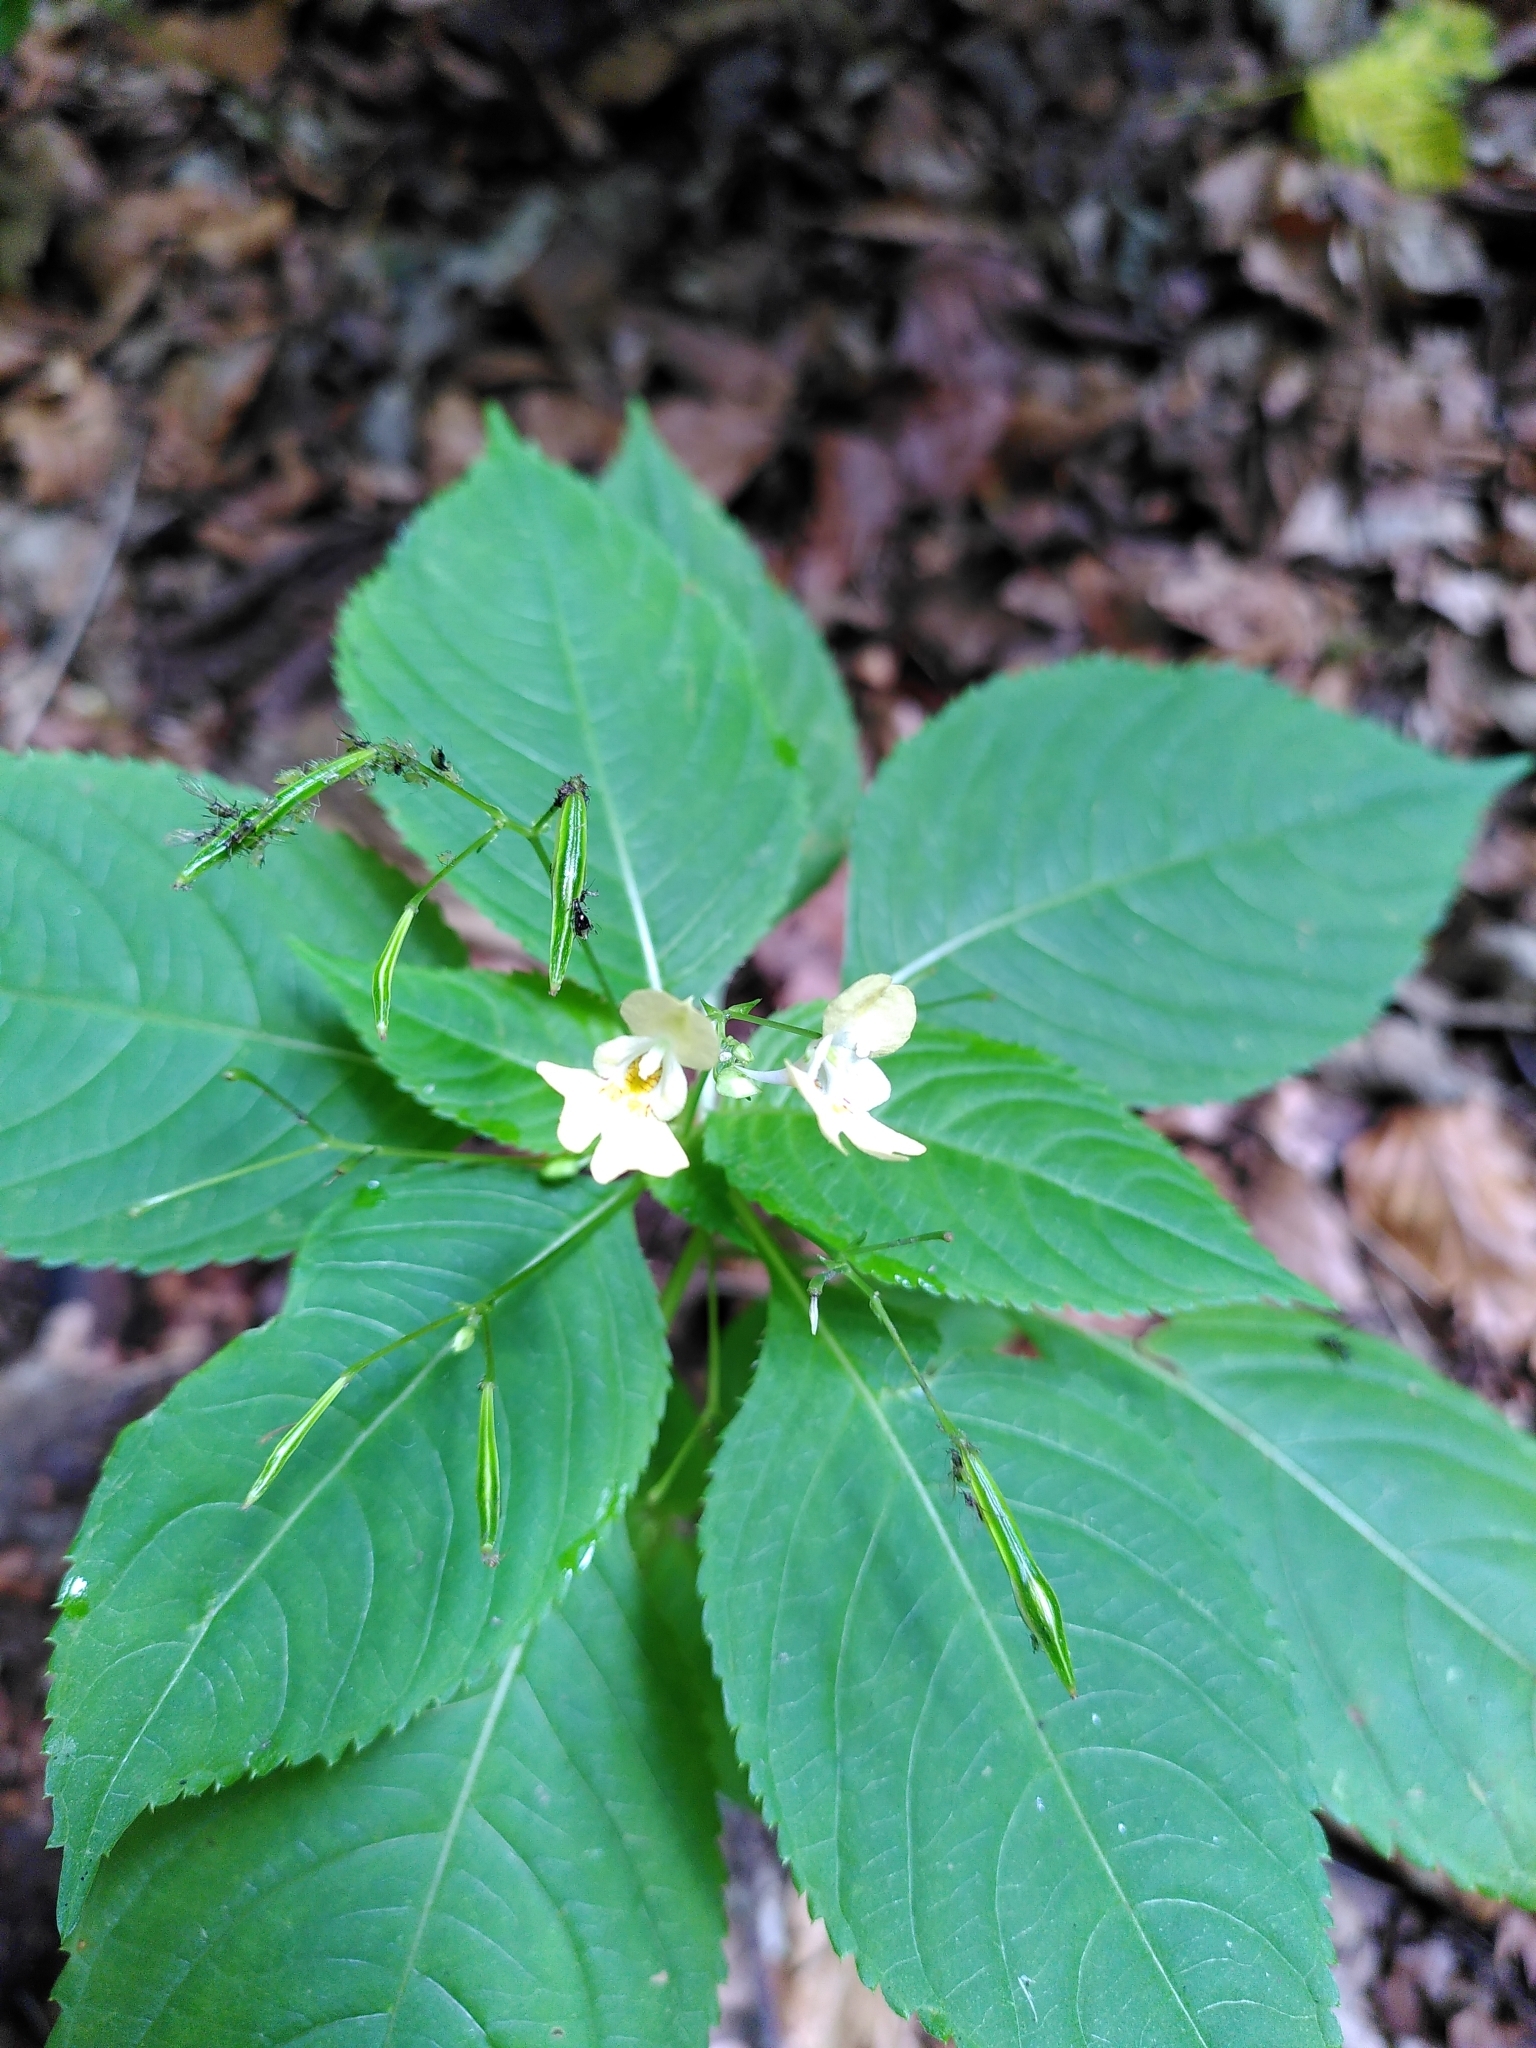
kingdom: Plantae
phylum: Tracheophyta
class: Magnoliopsida
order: Ericales
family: Balsaminaceae
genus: Impatiens
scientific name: Impatiens parviflora
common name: Small balsam
